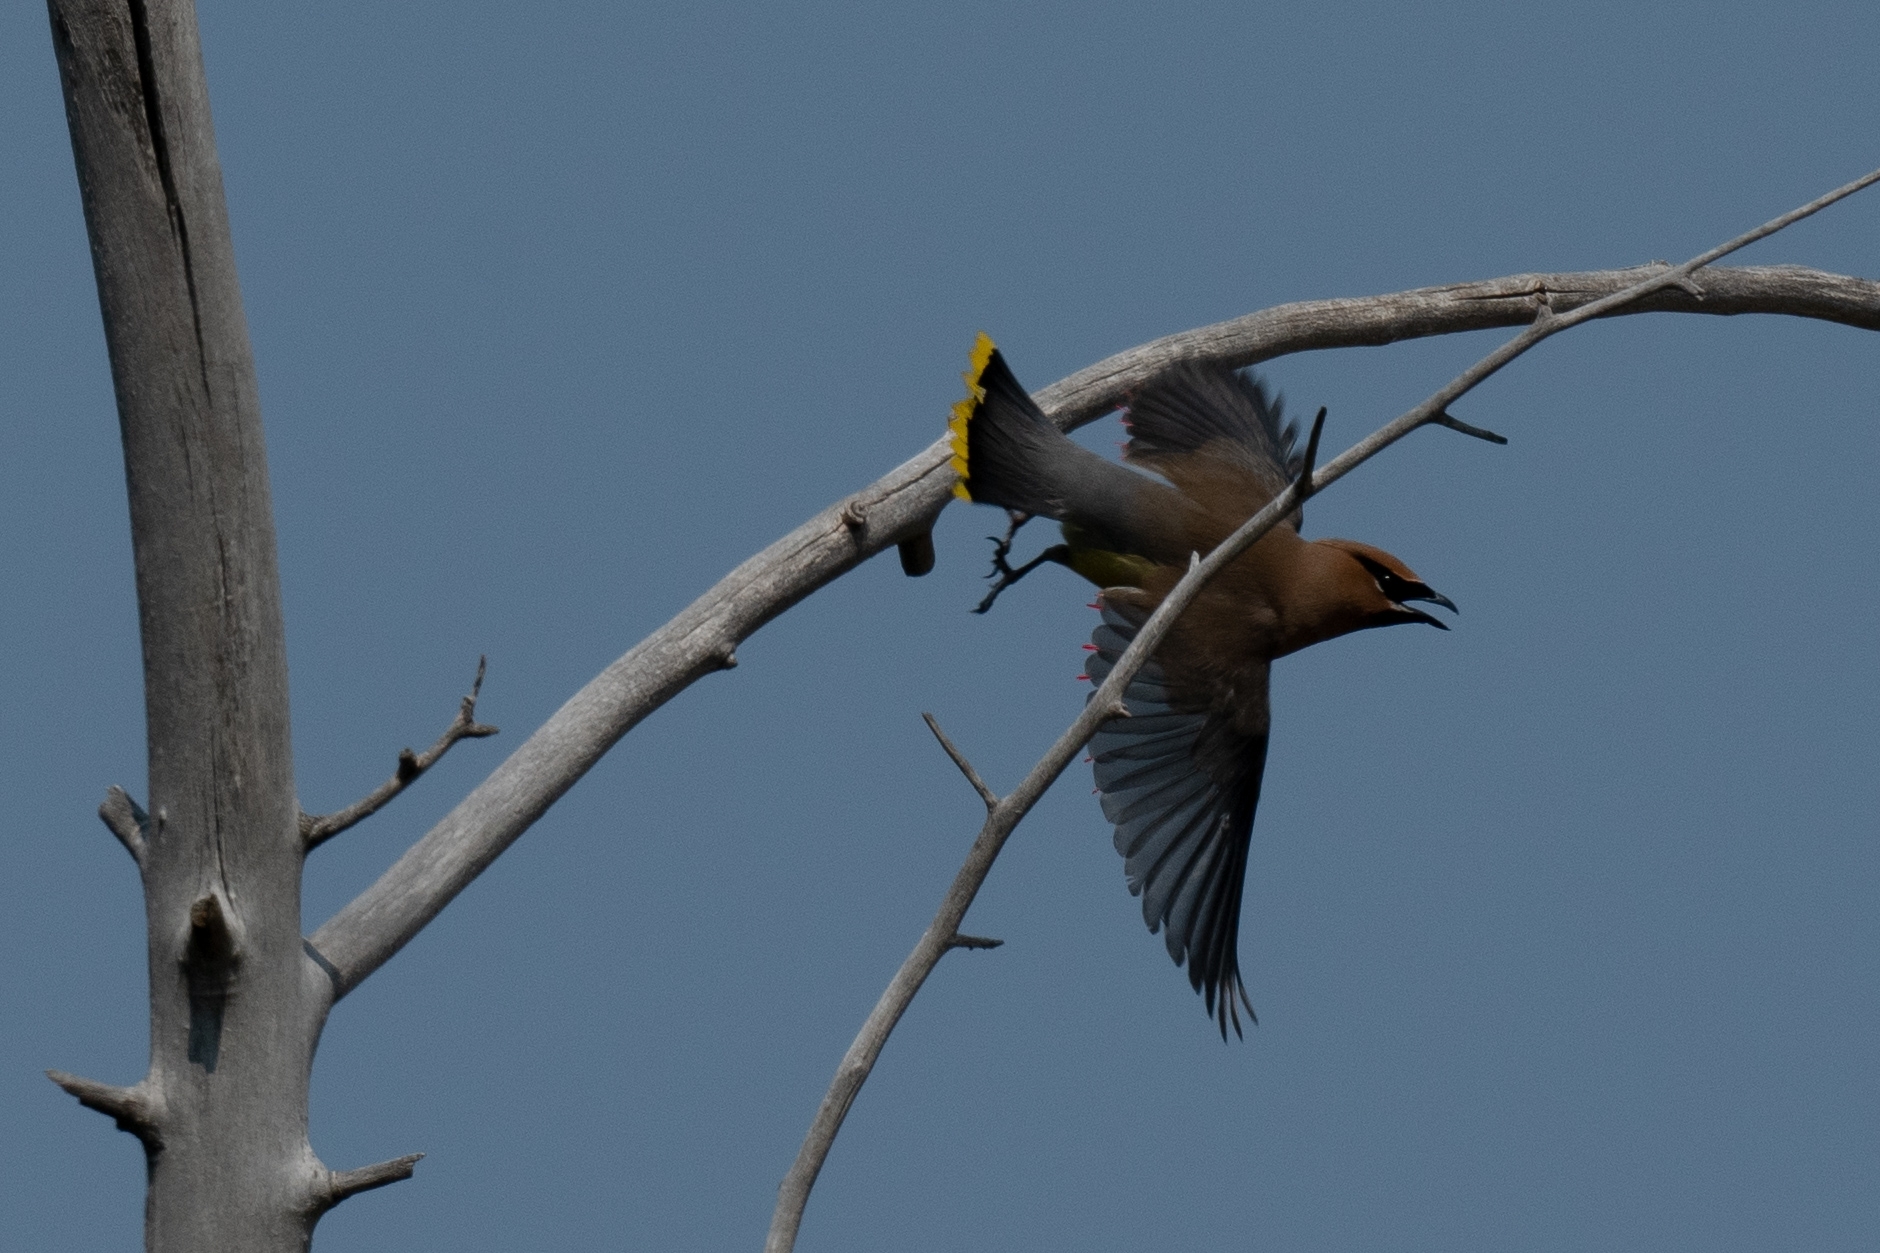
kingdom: Animalia
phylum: Chordata
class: Aves
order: Passeriformes
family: Bombycillidae
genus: Bombycilla
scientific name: Bombycilla cedrorum
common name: Cedar waxwing
